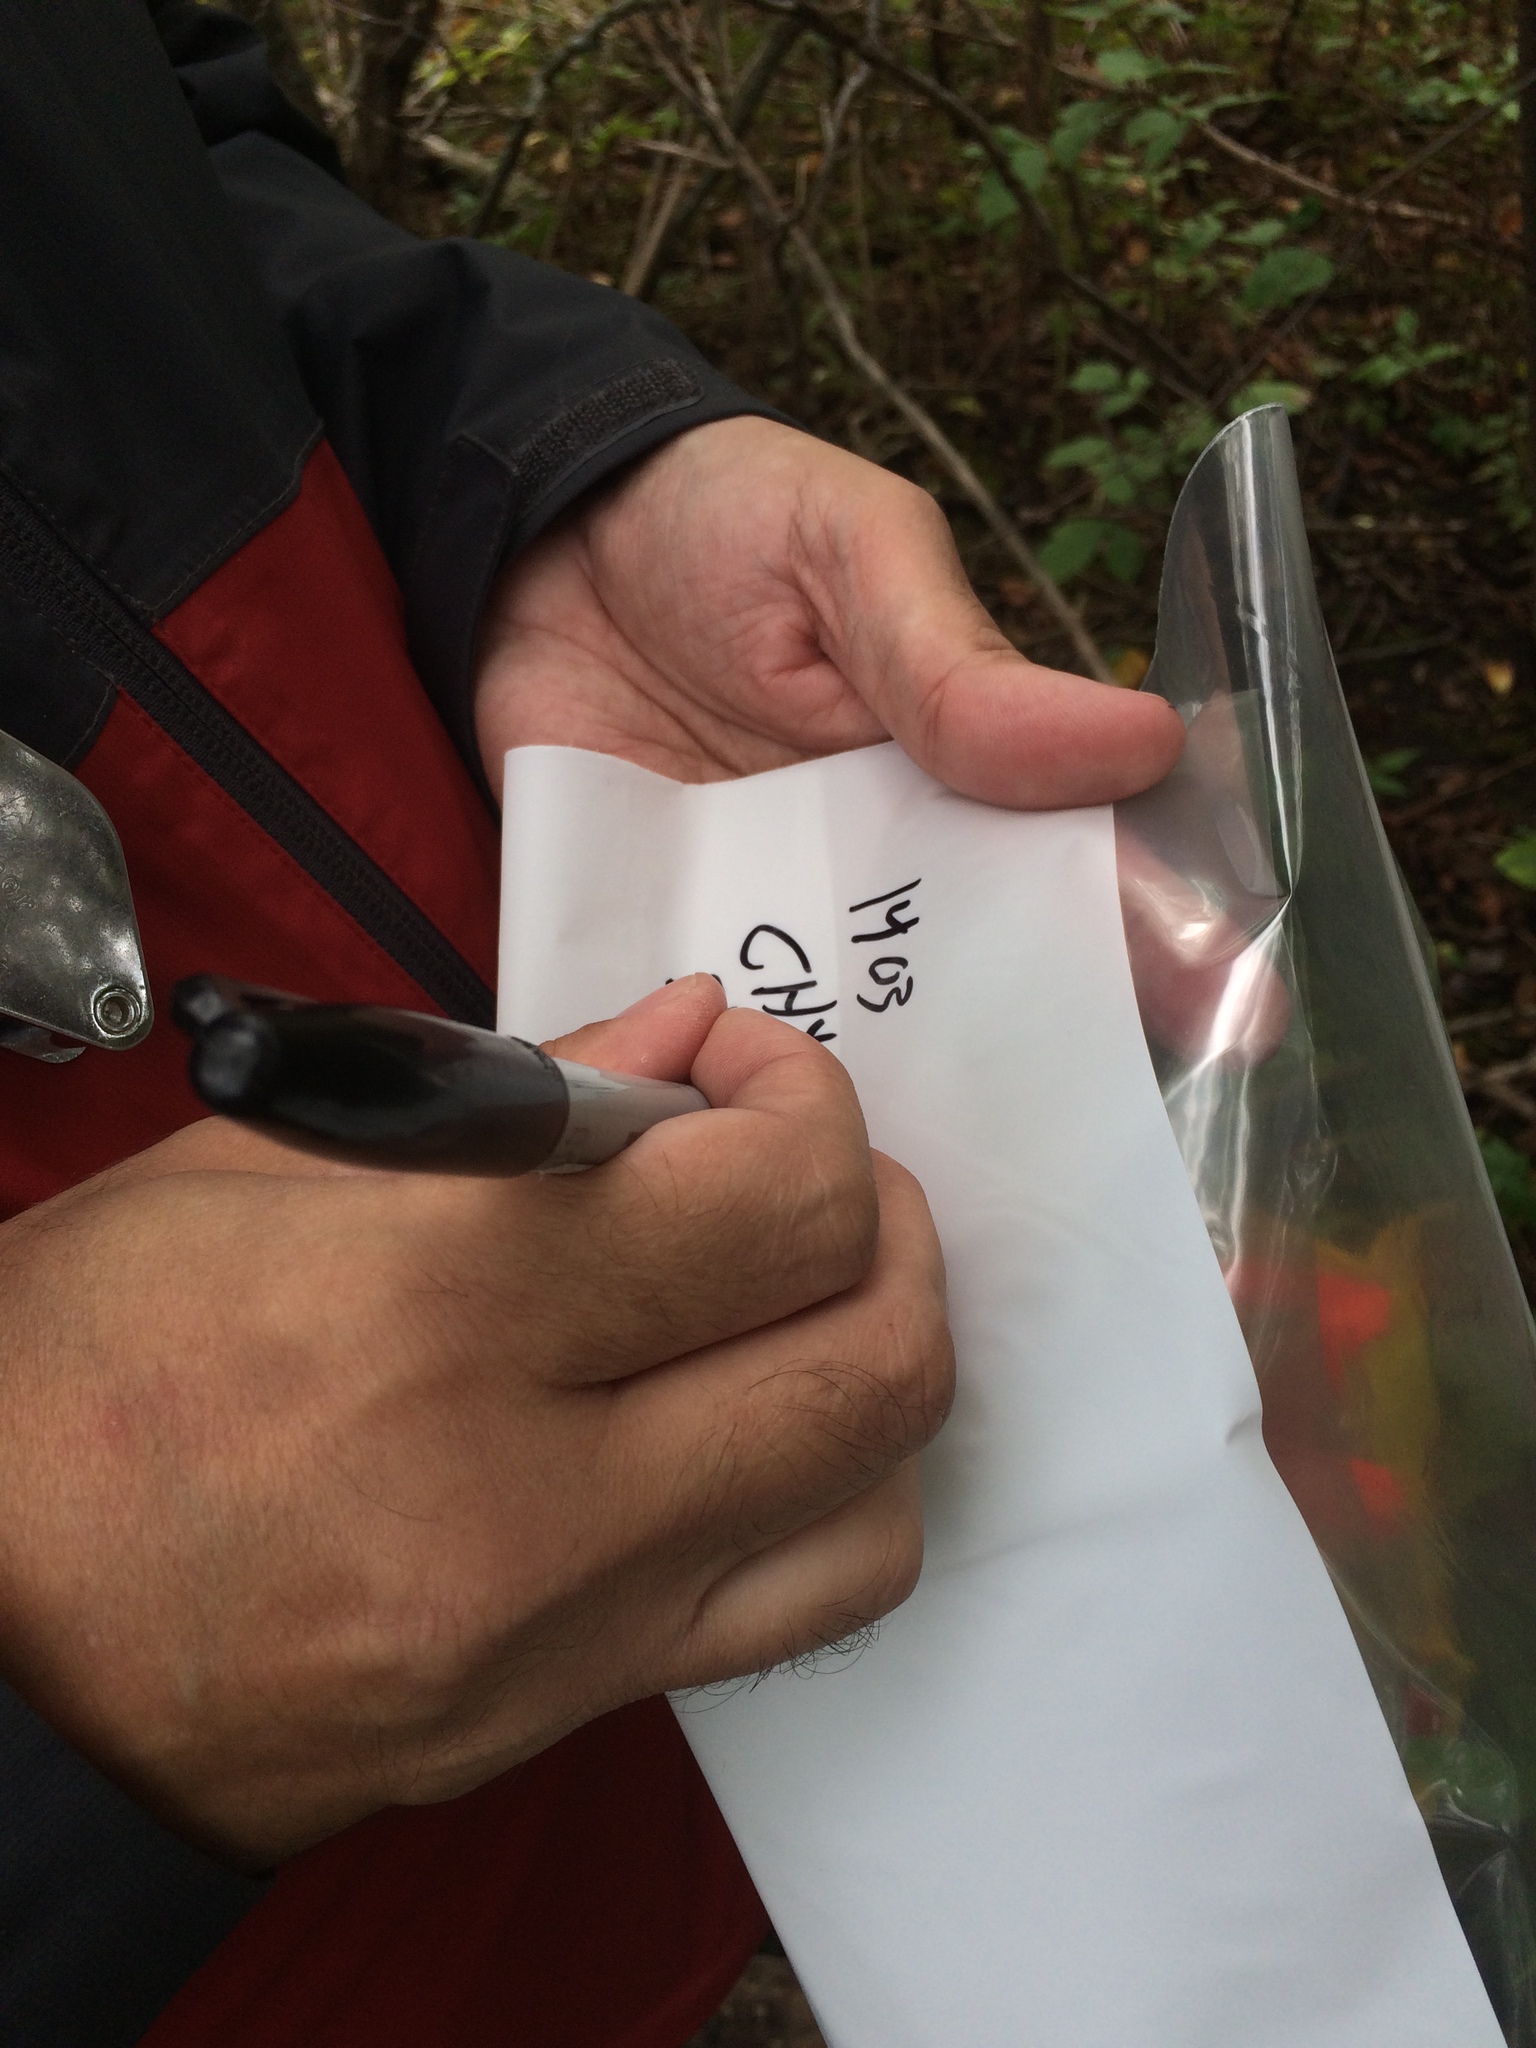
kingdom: Plantae
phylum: Tracheophyta
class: Magnoliopsida
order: Rosales
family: Rosaceae
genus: Crataegus
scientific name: Crataegus chrysocarpa
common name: Fire-berry hawthorn
